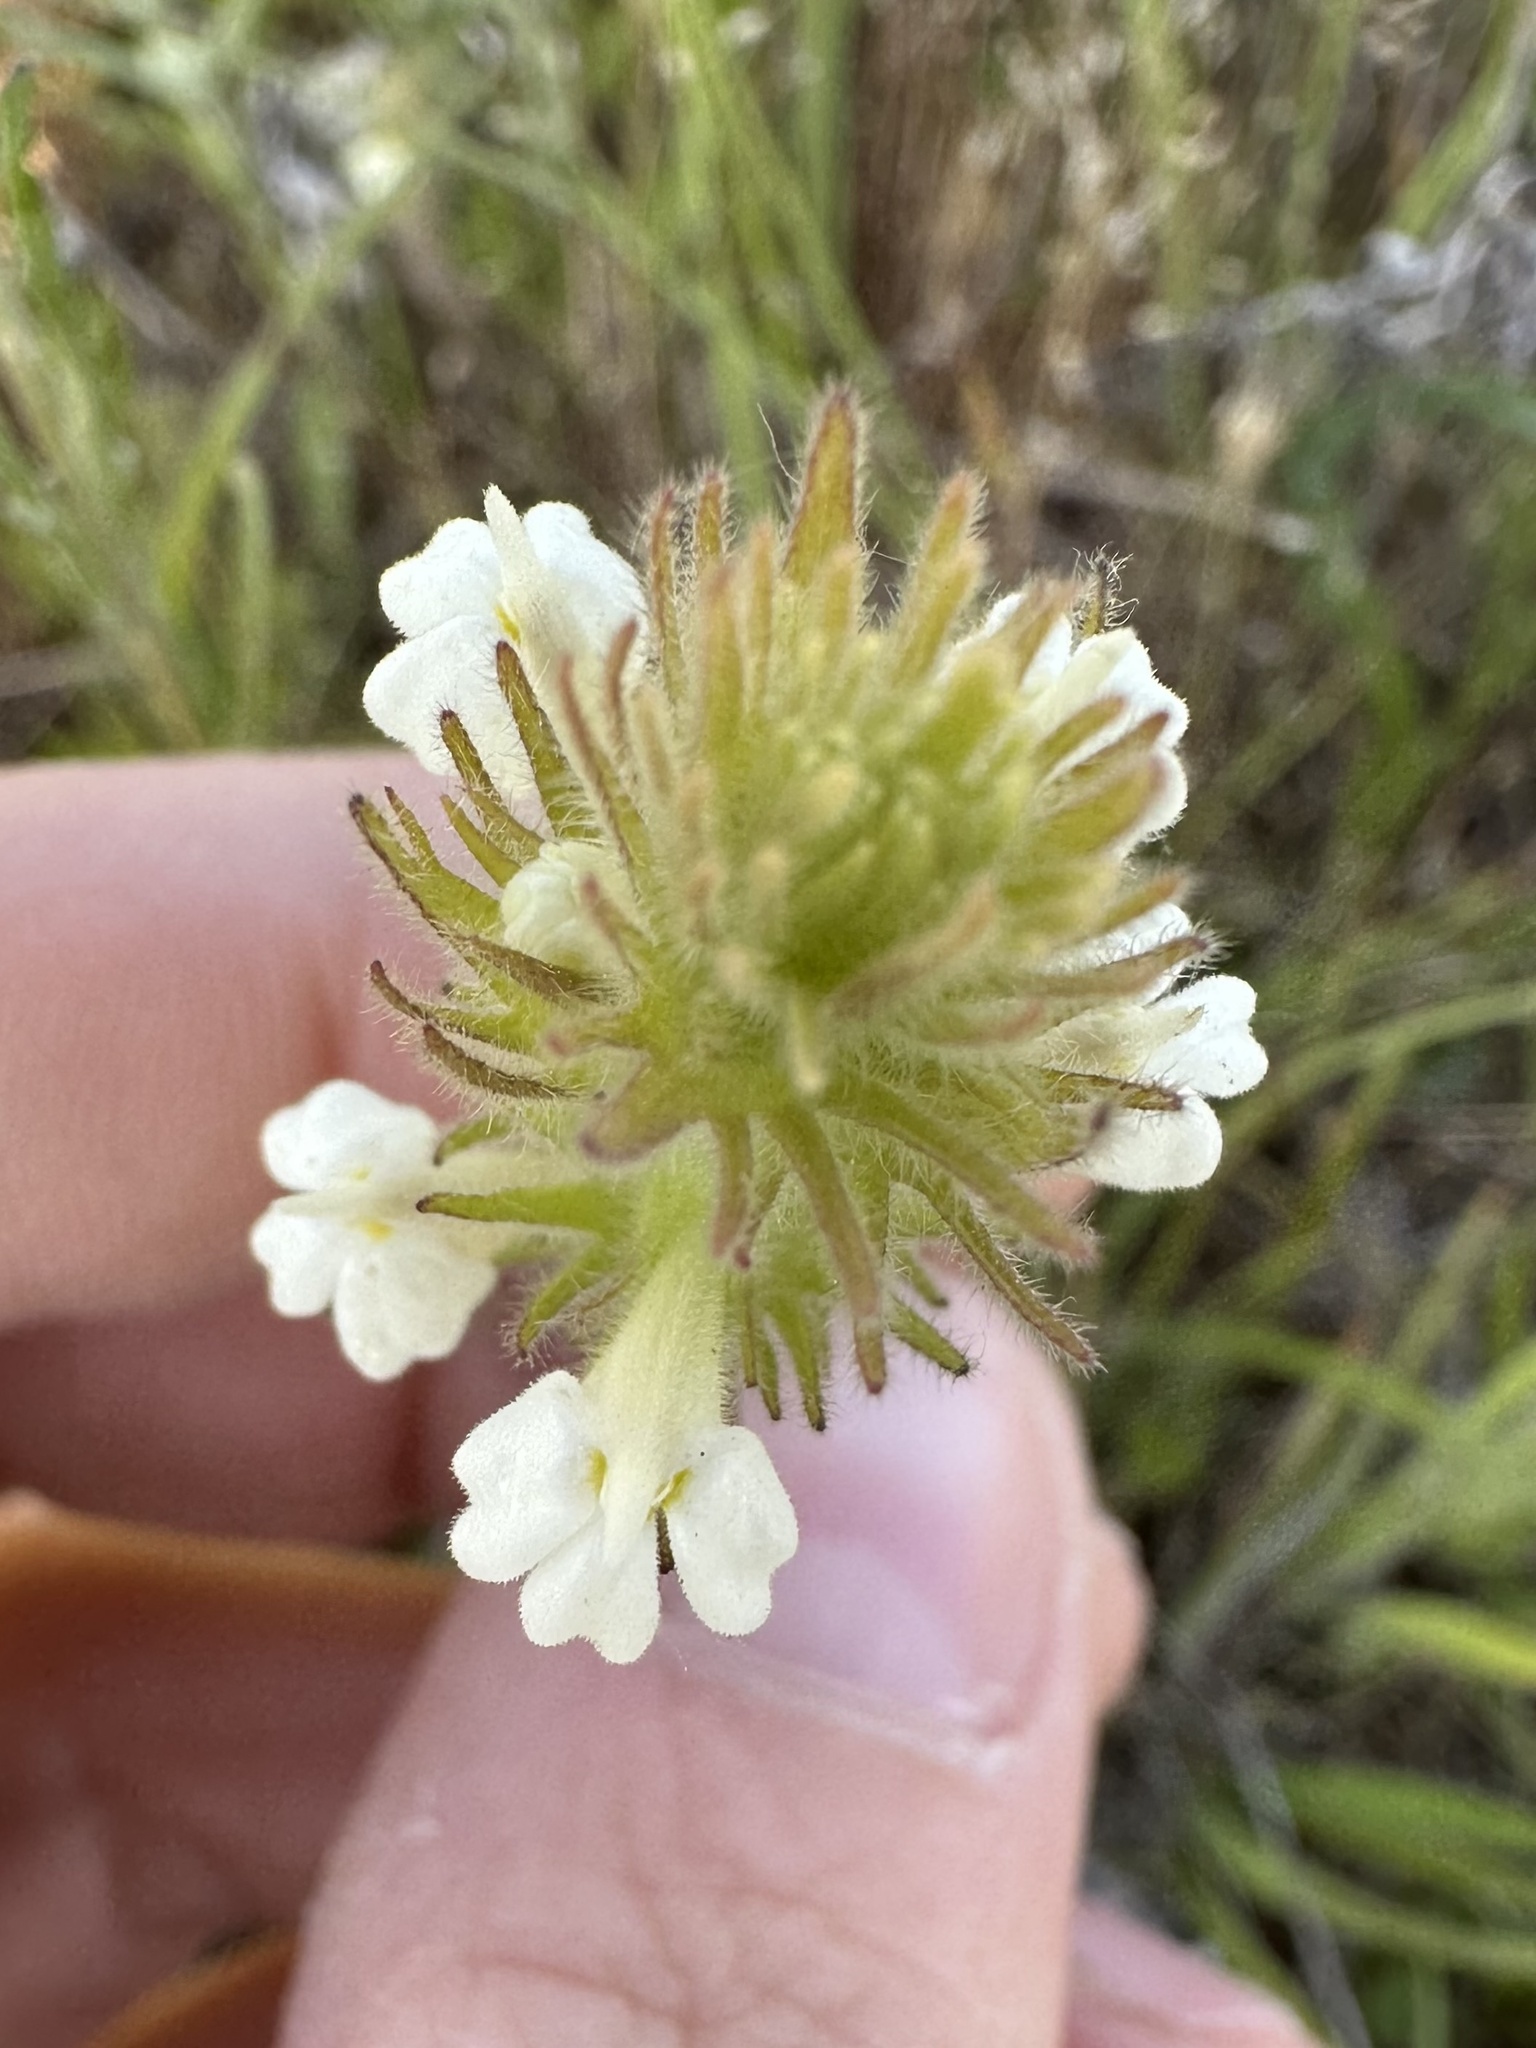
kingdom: Plantae
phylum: Tracheophyta
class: Magnoliopsida
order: Lamiales
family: Orobanchaceae
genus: Castilleja
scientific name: Castilleja tenuis
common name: Hairy indian paintbrush
